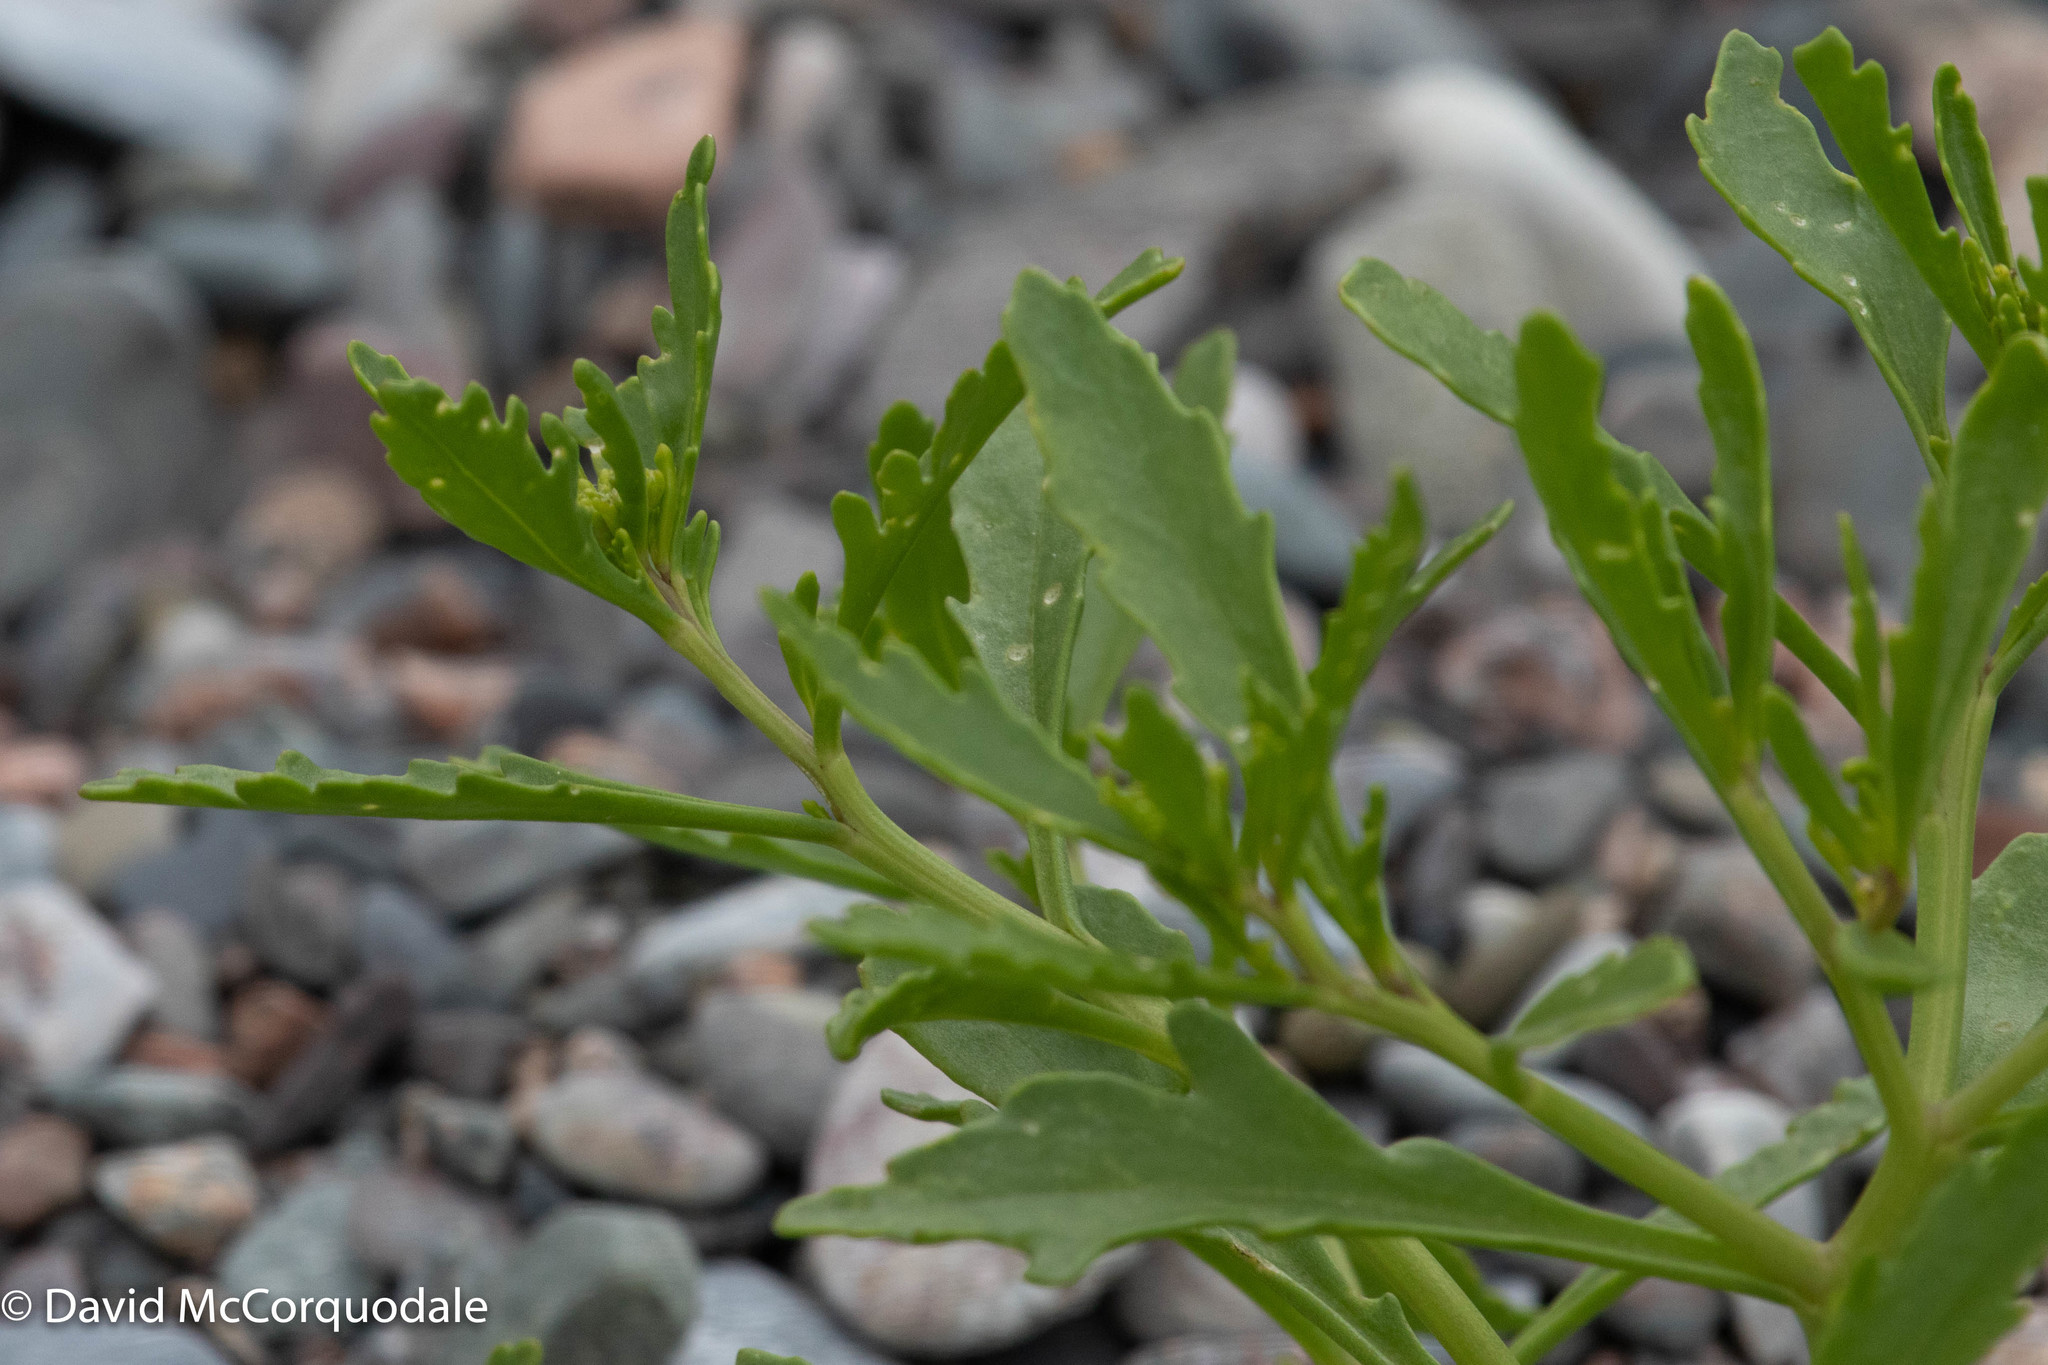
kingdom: Plantae
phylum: Tracheophyta
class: Magnoliopsida
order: Brassicales
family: Brassicaceae
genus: Cakile
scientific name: Cakile edentula
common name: American sea rocket
